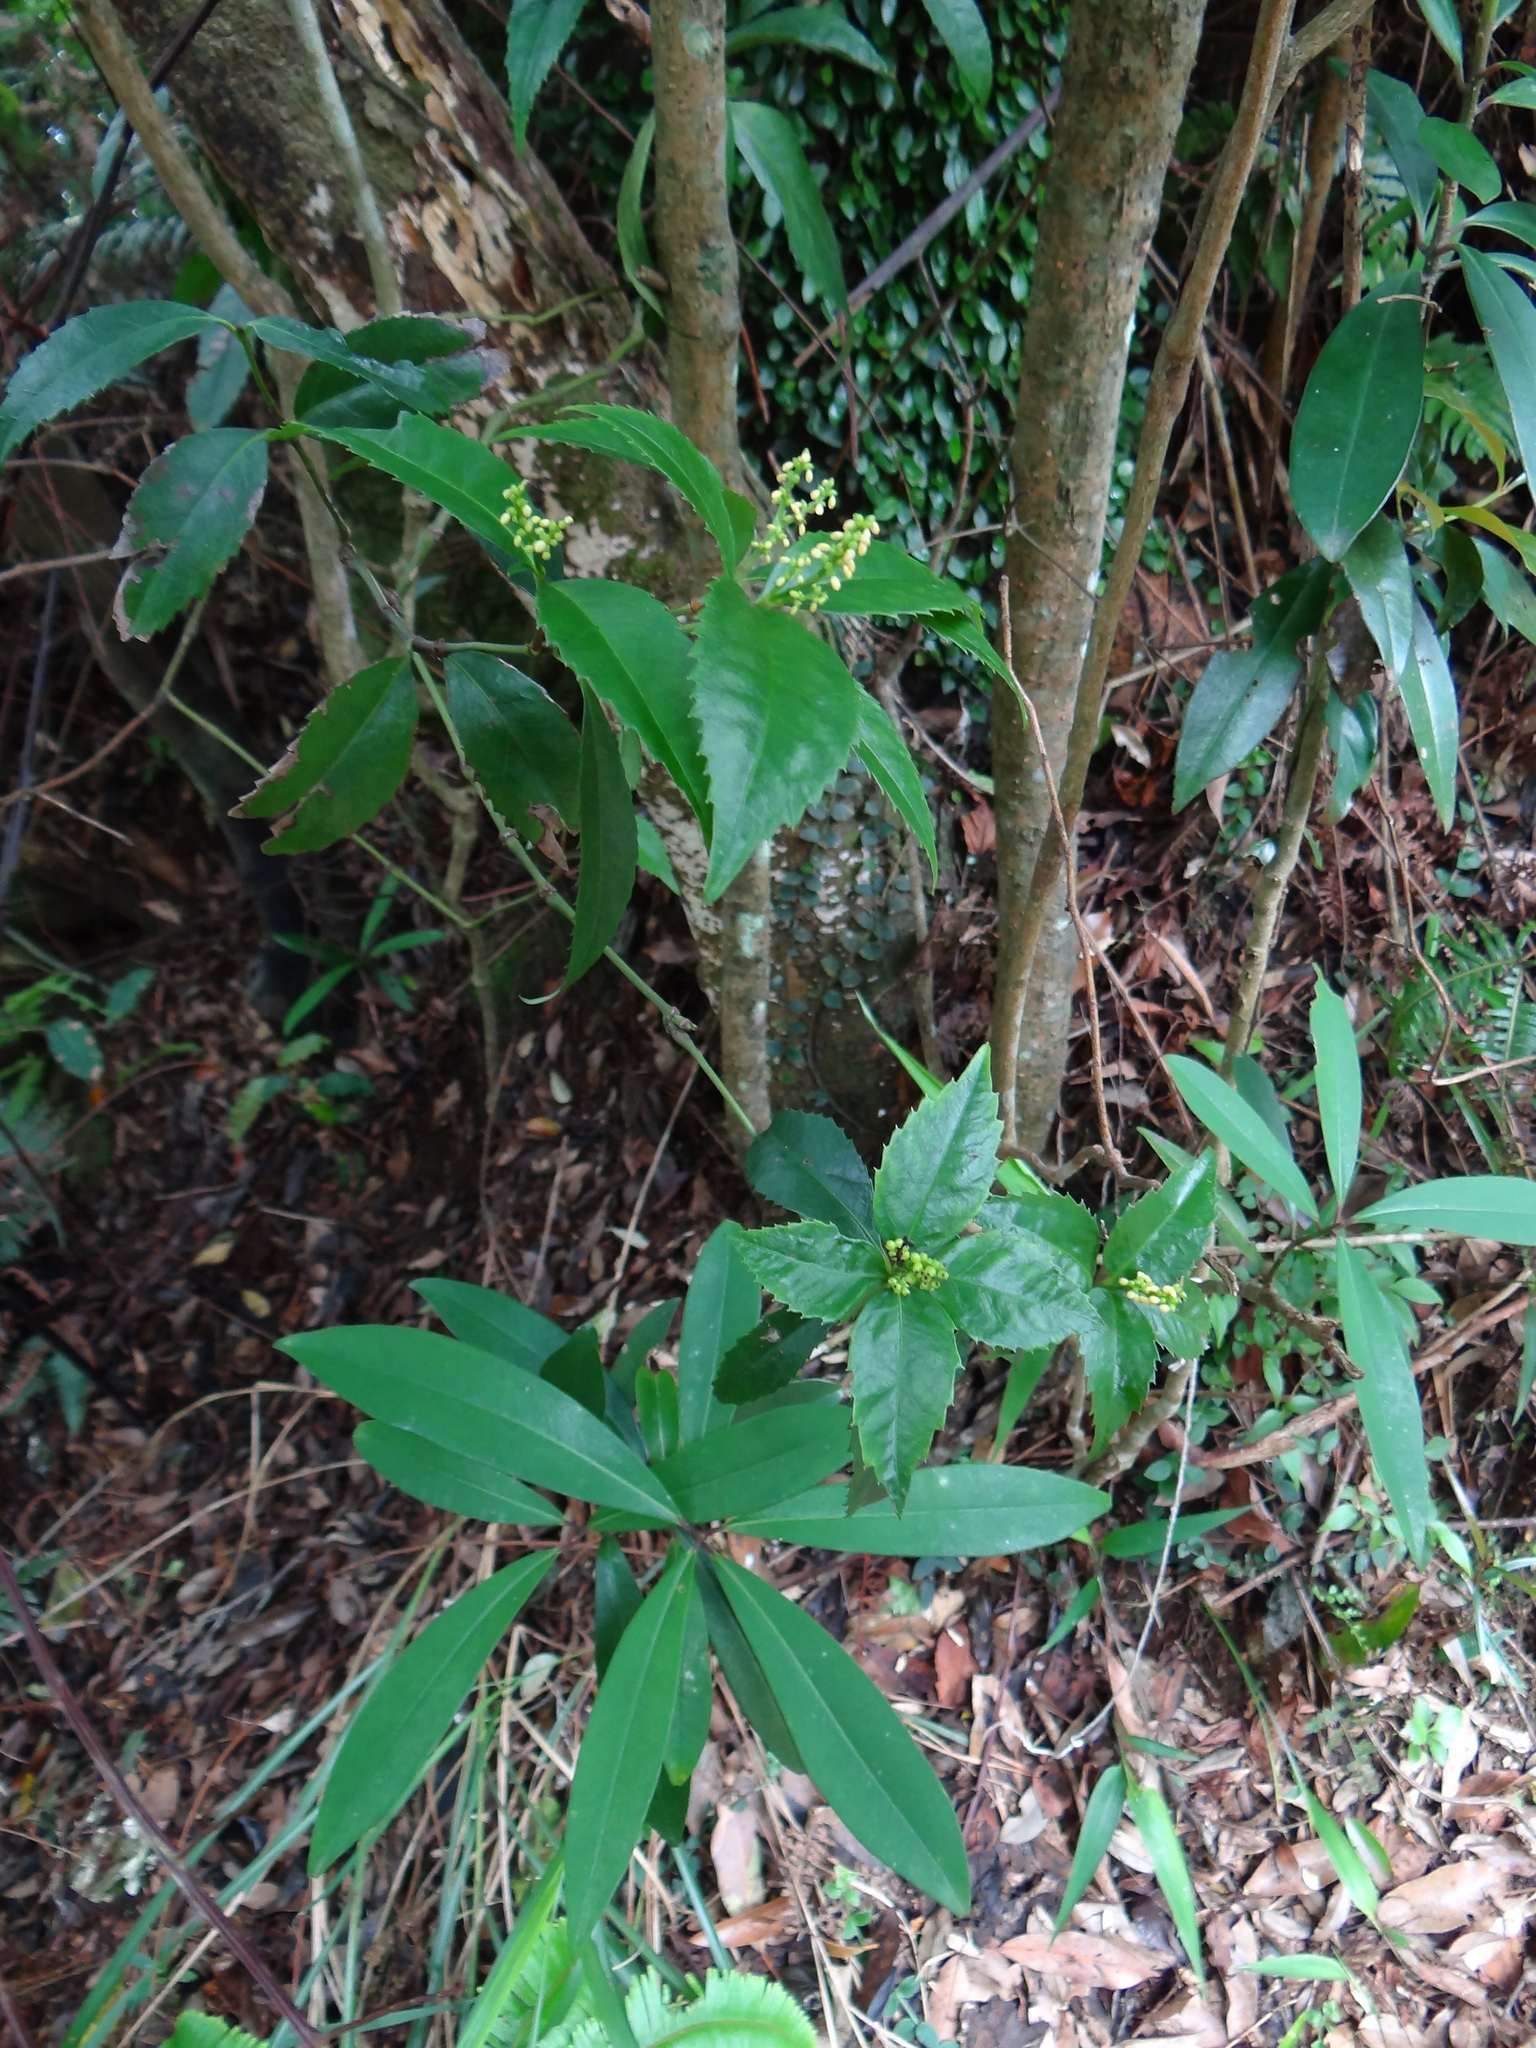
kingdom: Plantae
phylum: Tracheophyta
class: Magnoliopsida
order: Chloranthales
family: Chloranthaceae
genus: Sarcandra
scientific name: Sarcandra glabra
